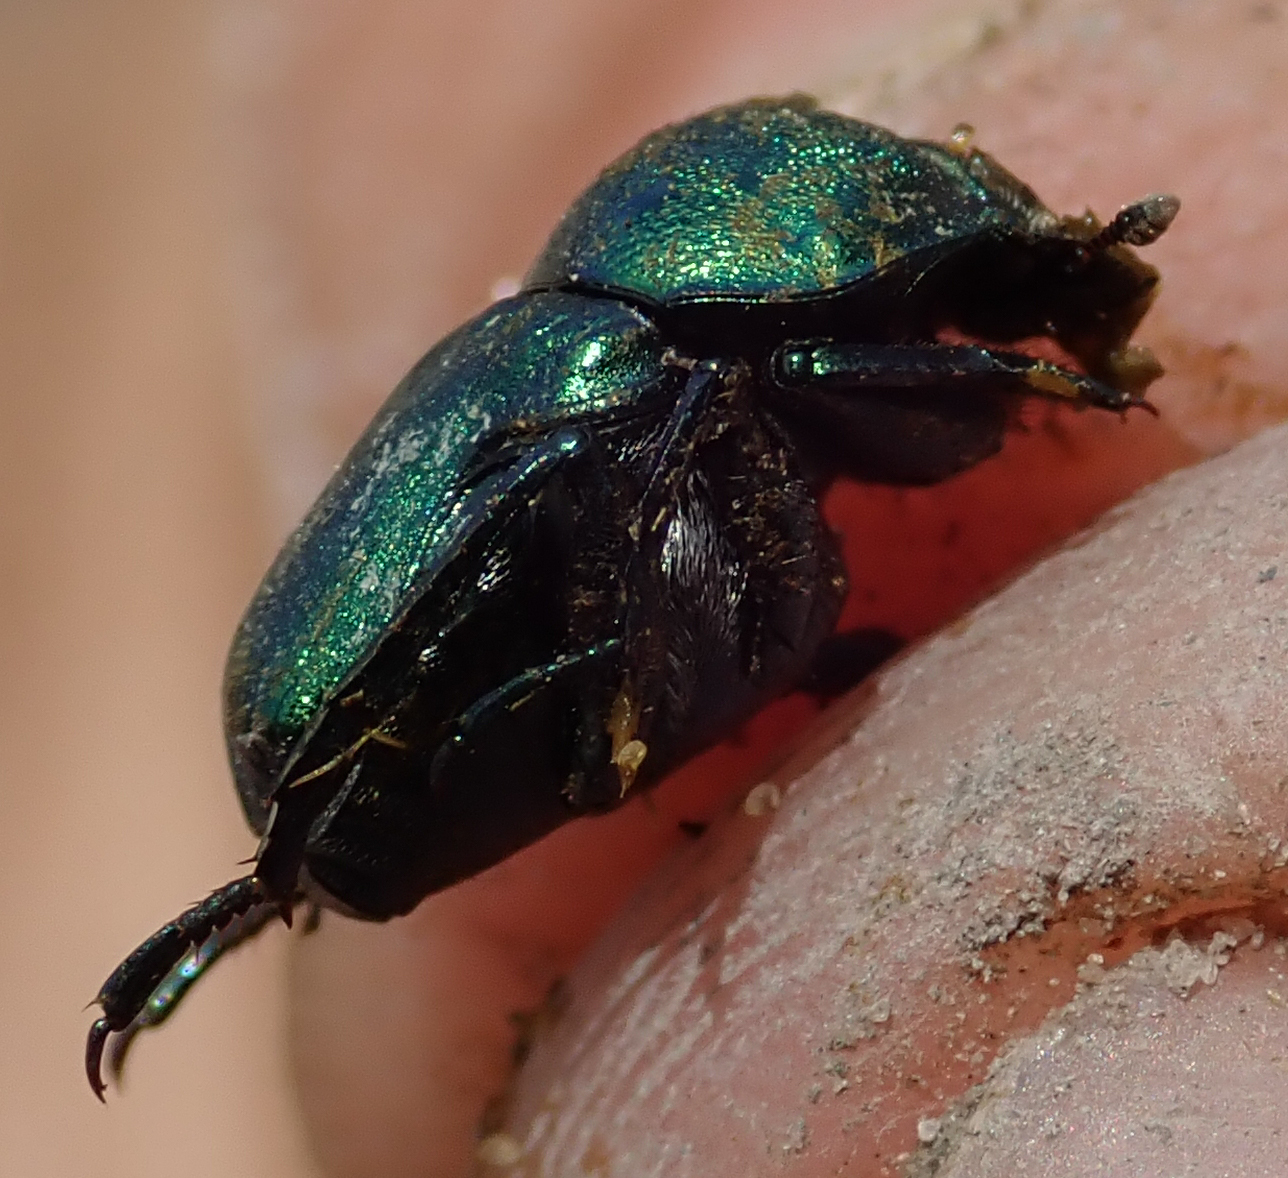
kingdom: Animalia
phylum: Arthropoda
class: Insecta
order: Coleoptera
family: Scarabaeidae
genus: Gymnopleurus
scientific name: Gymnopleurus virens
